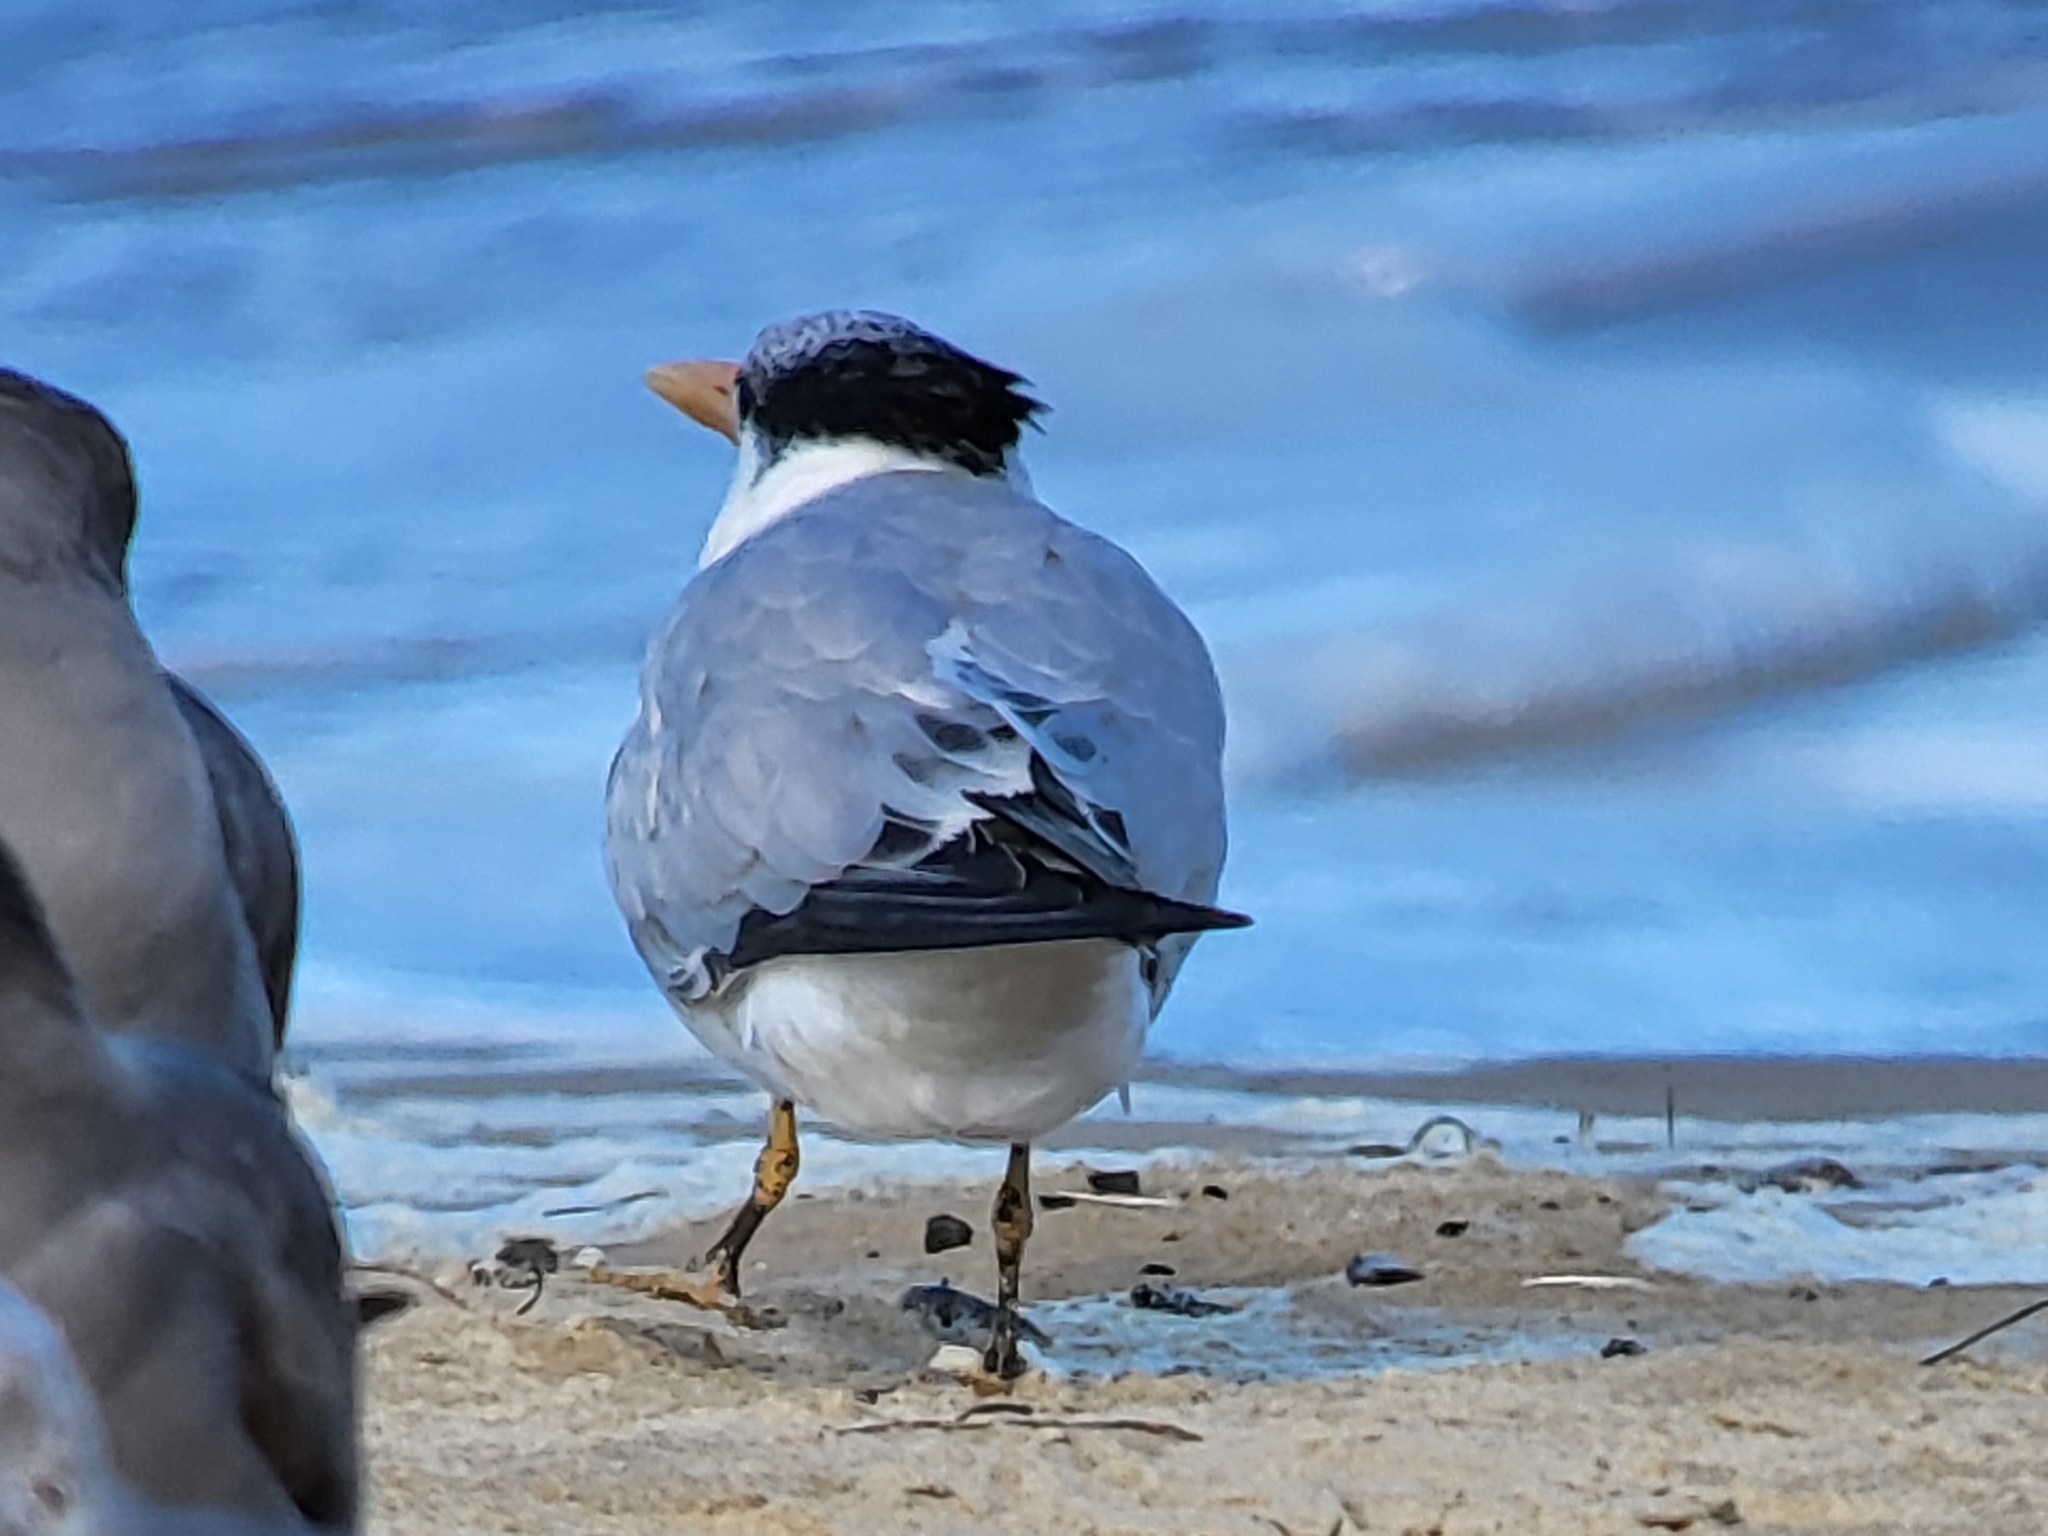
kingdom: Animalia
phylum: Chordata
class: Aves
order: Charadriiformes
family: Laridae
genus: Thalasseus
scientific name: Thalasseus maximus
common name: Royal tern
